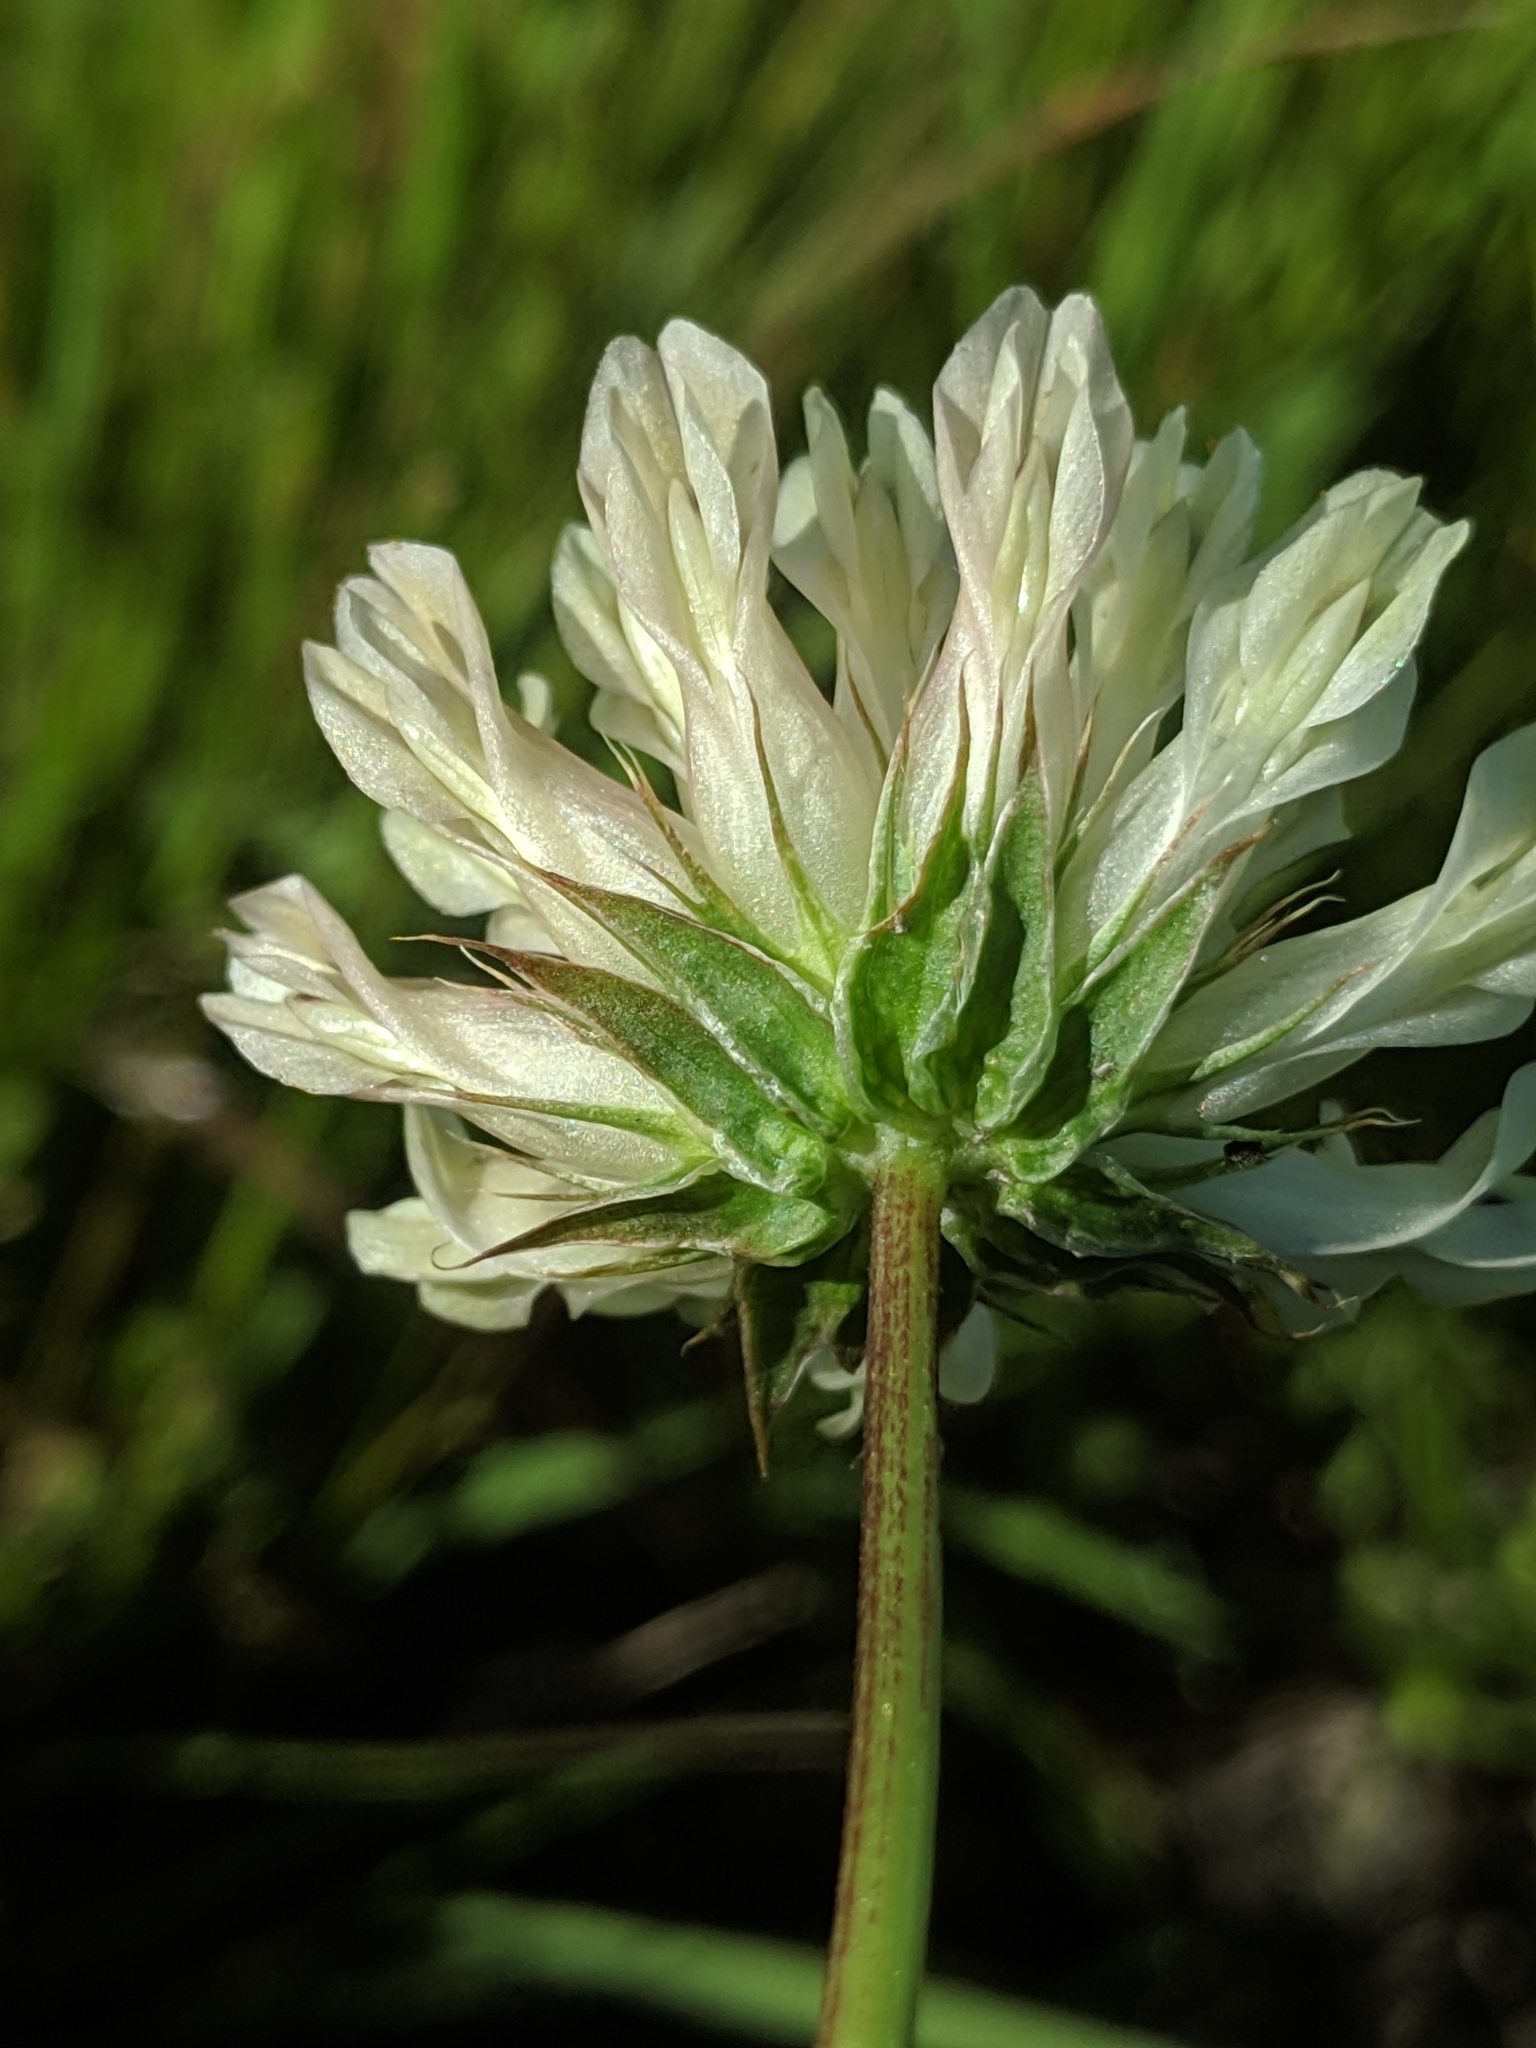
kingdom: Plantae
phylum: Tracheophyta
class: Magnoliopsida
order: Fabales
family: Fabaceae
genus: Trifolium
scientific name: Trifolium fucatum
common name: Puff clover
